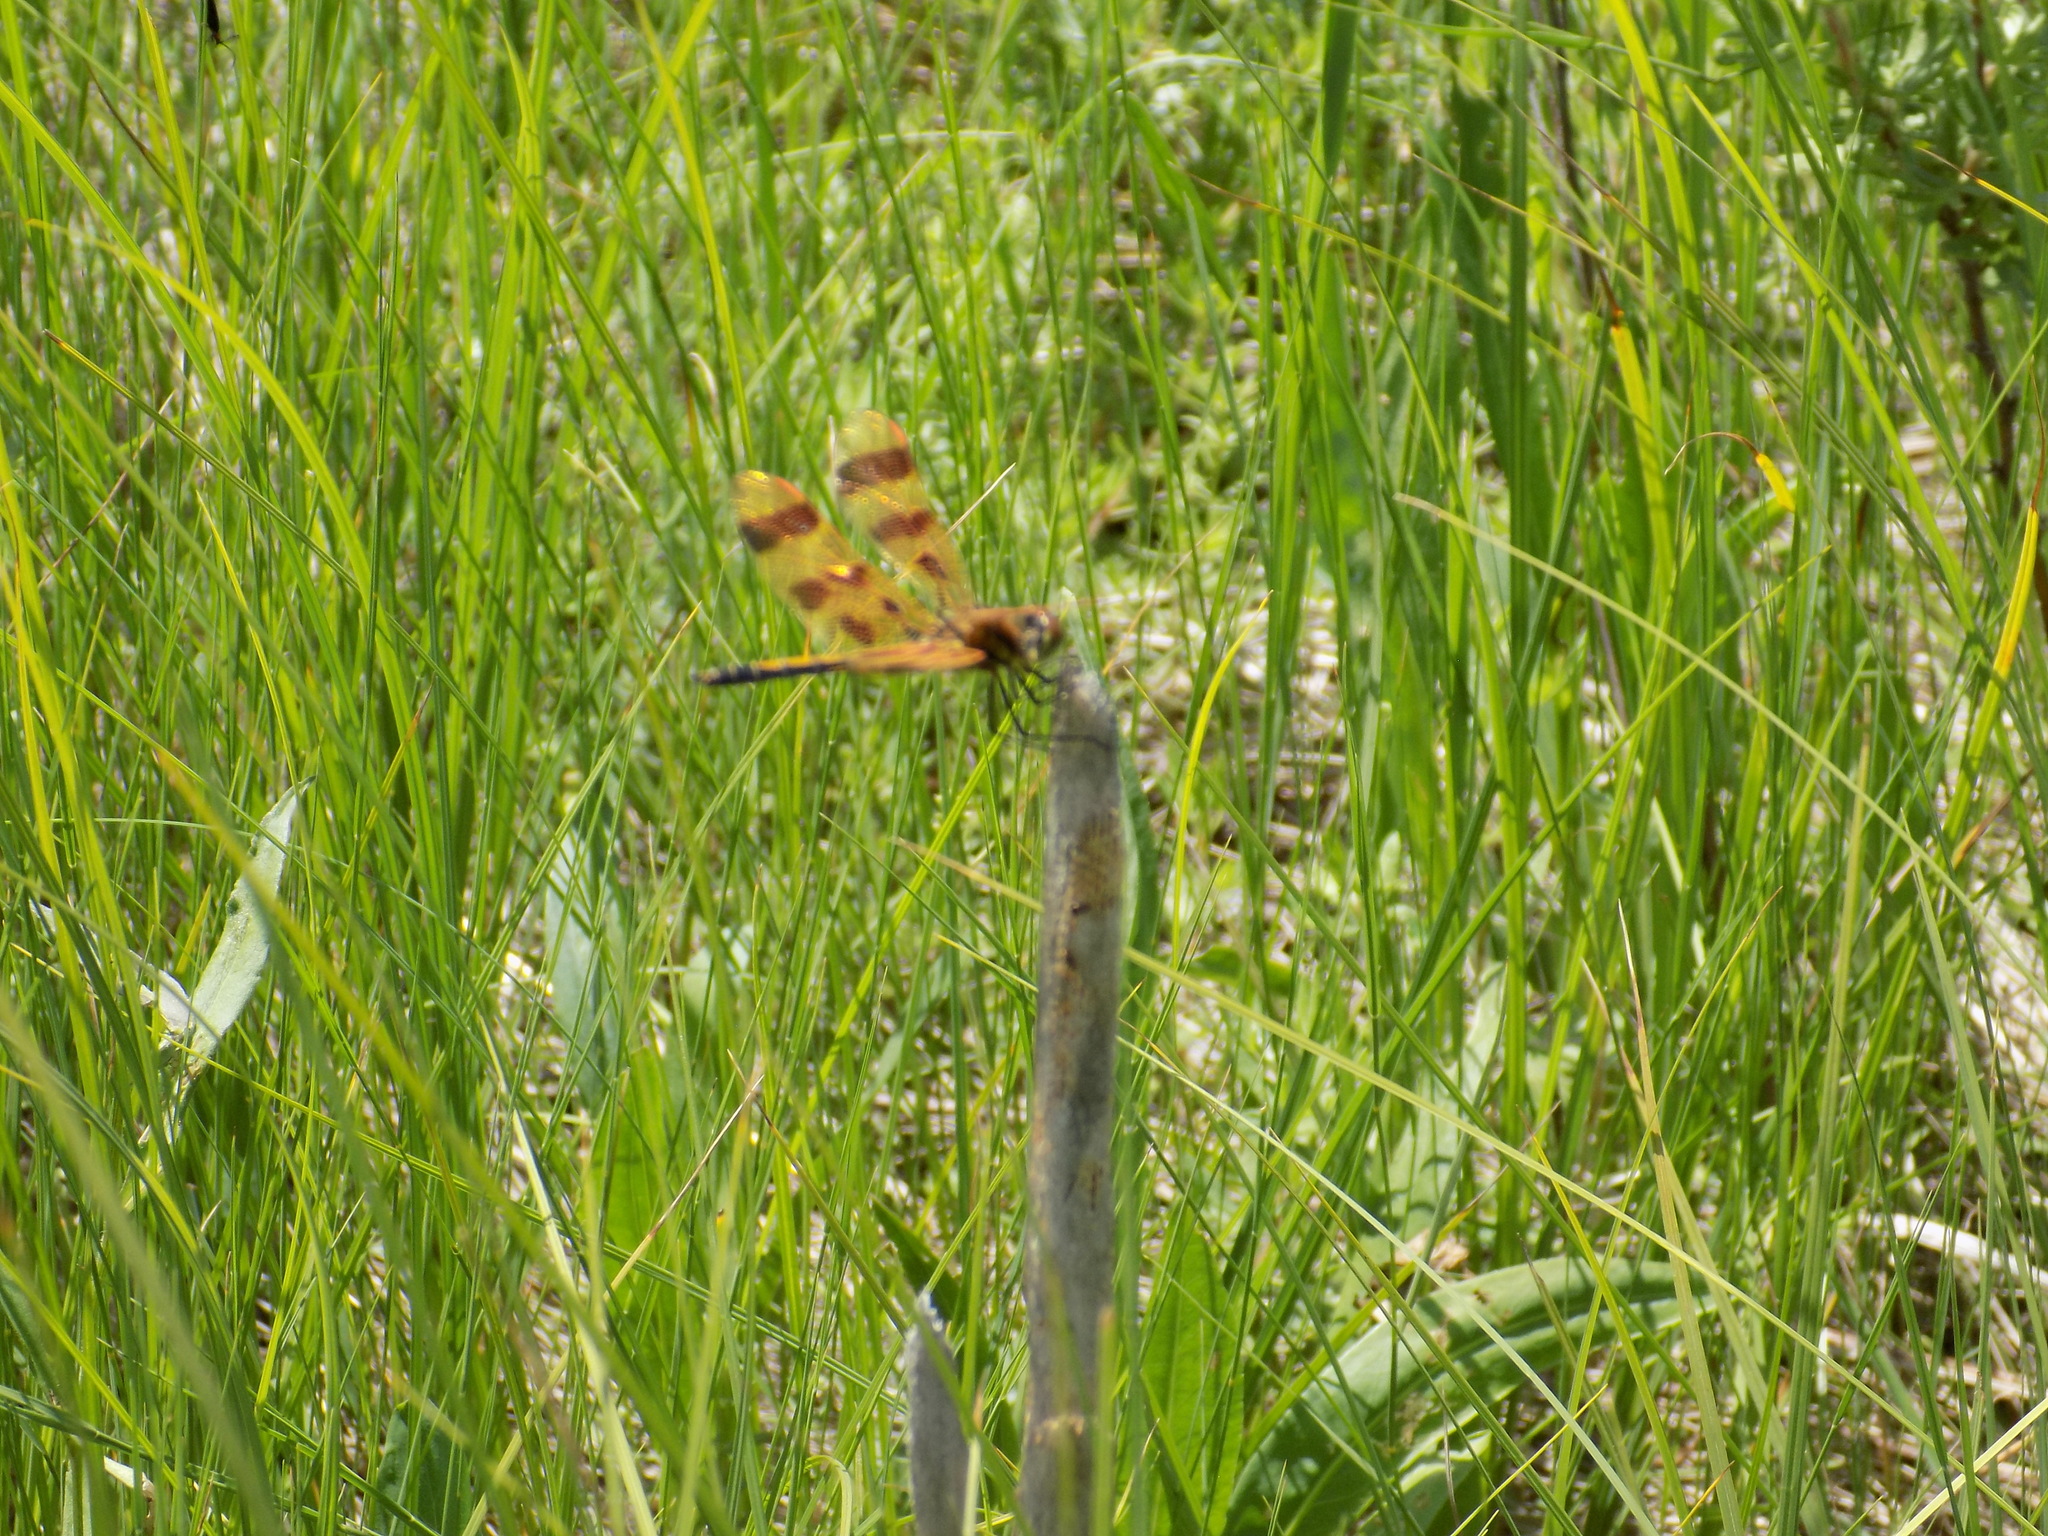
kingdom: Animalia
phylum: Arthropoda
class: Insecta
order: Odonata
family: Libellulidae
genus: Celithemis
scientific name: Celithemis eponina
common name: Halloween pennant
